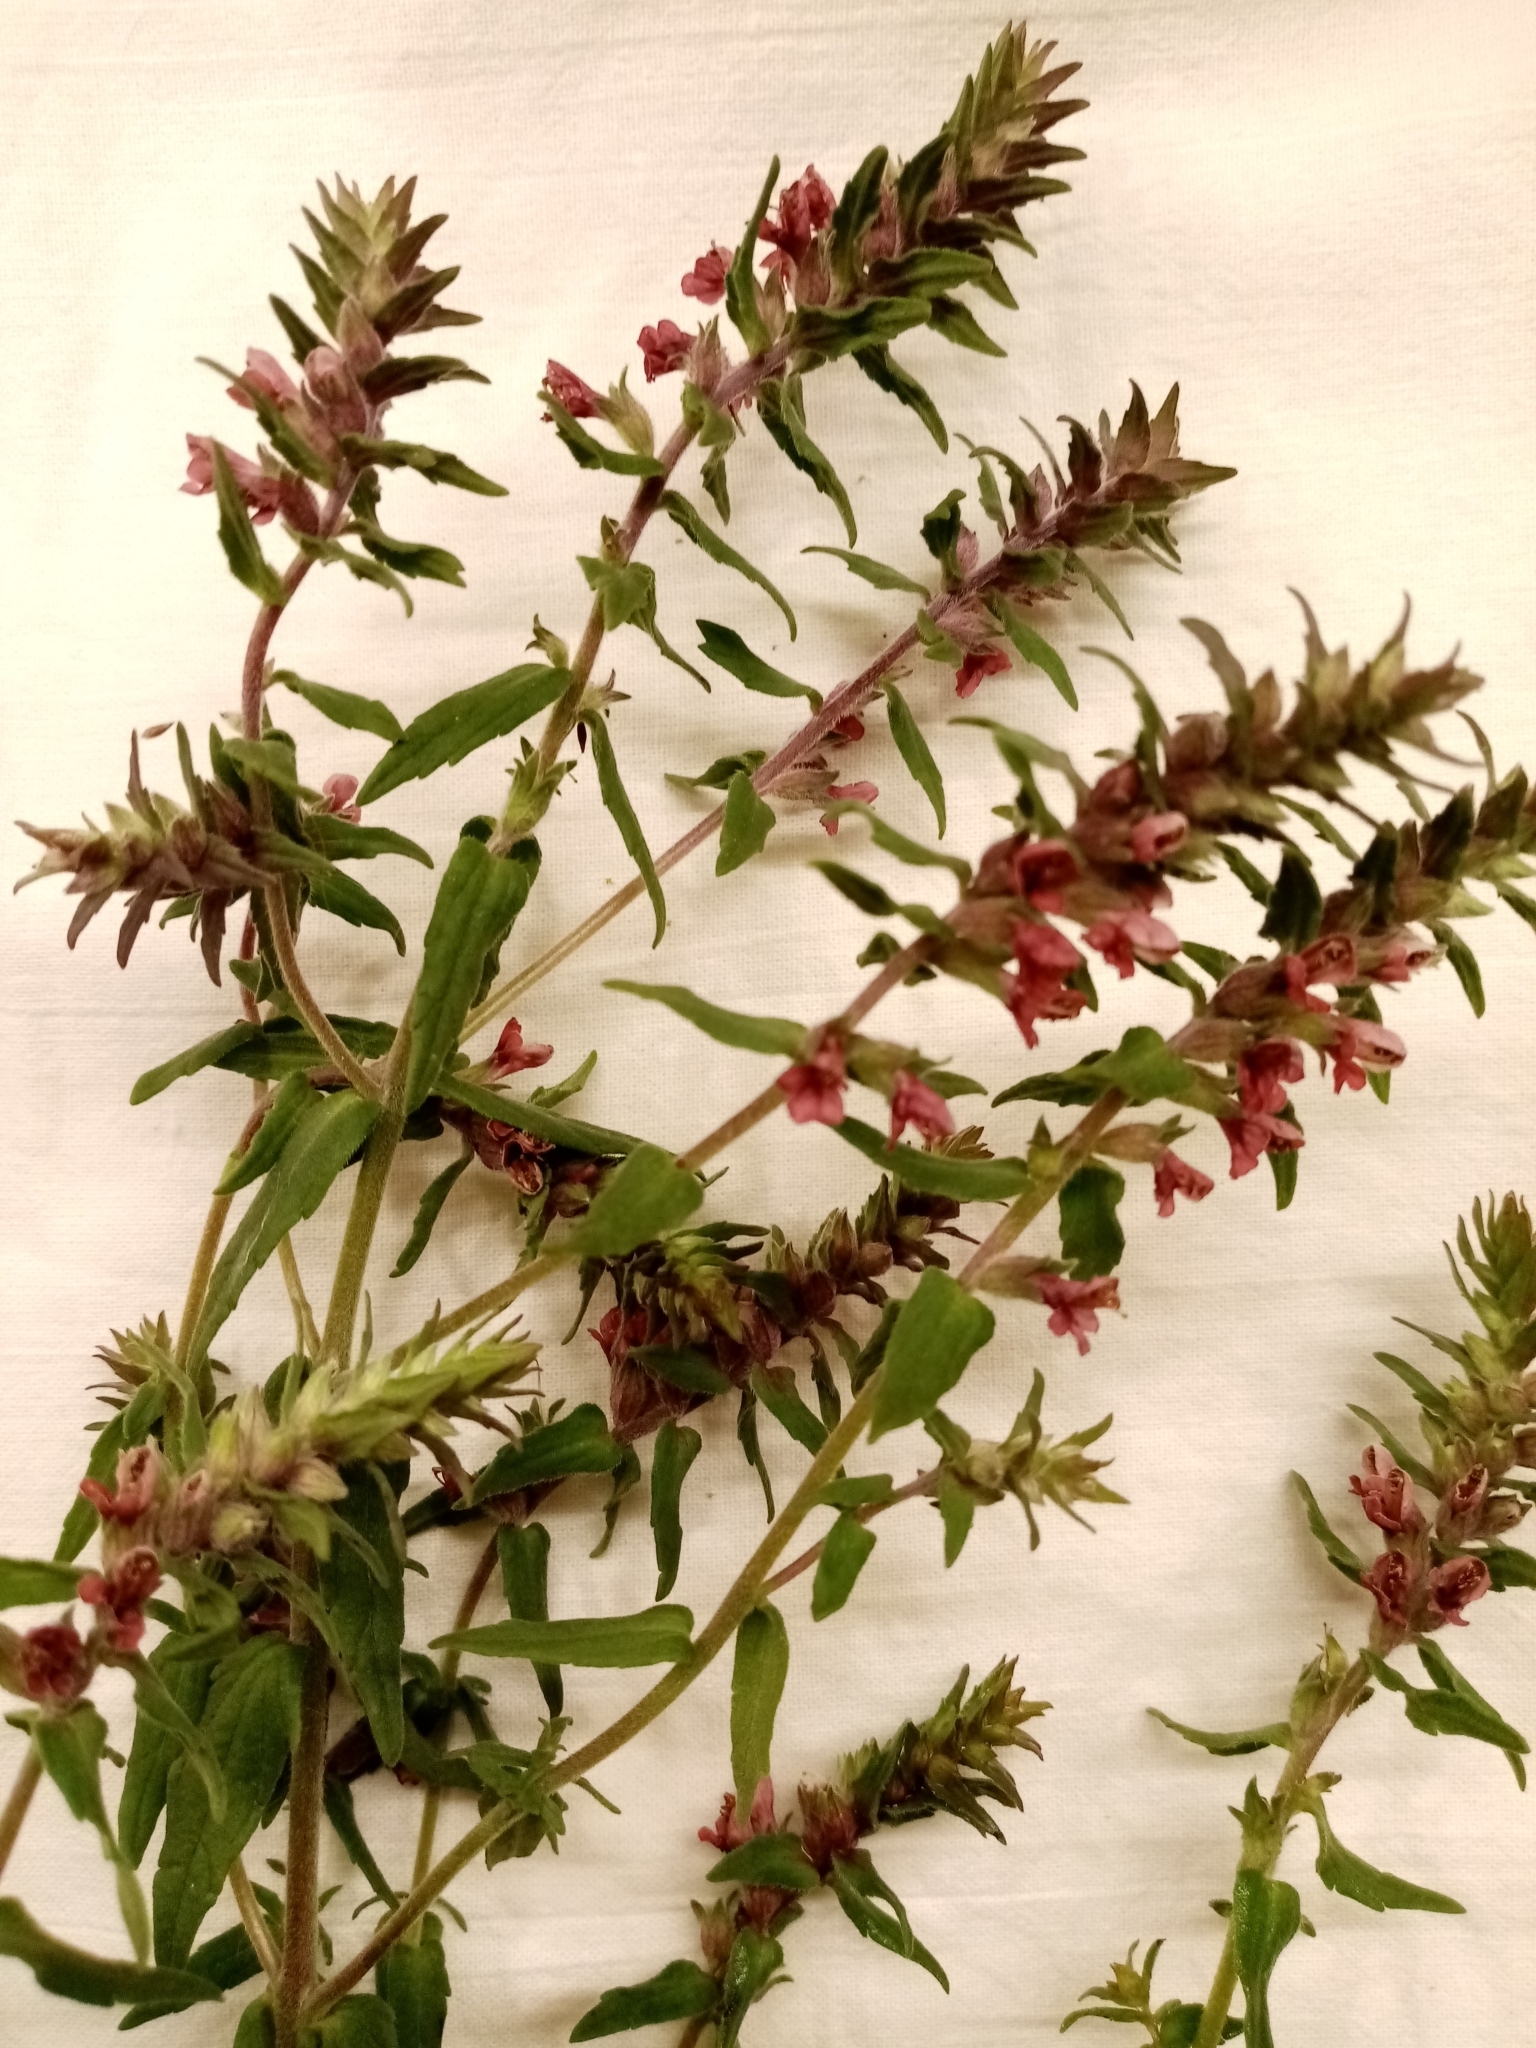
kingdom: Plantae
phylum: Tracheophyta
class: Magnoliopsida
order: Lamiales
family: Orobanchaceae
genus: Odontites
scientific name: Odontites vulgaris
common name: Broomrape
